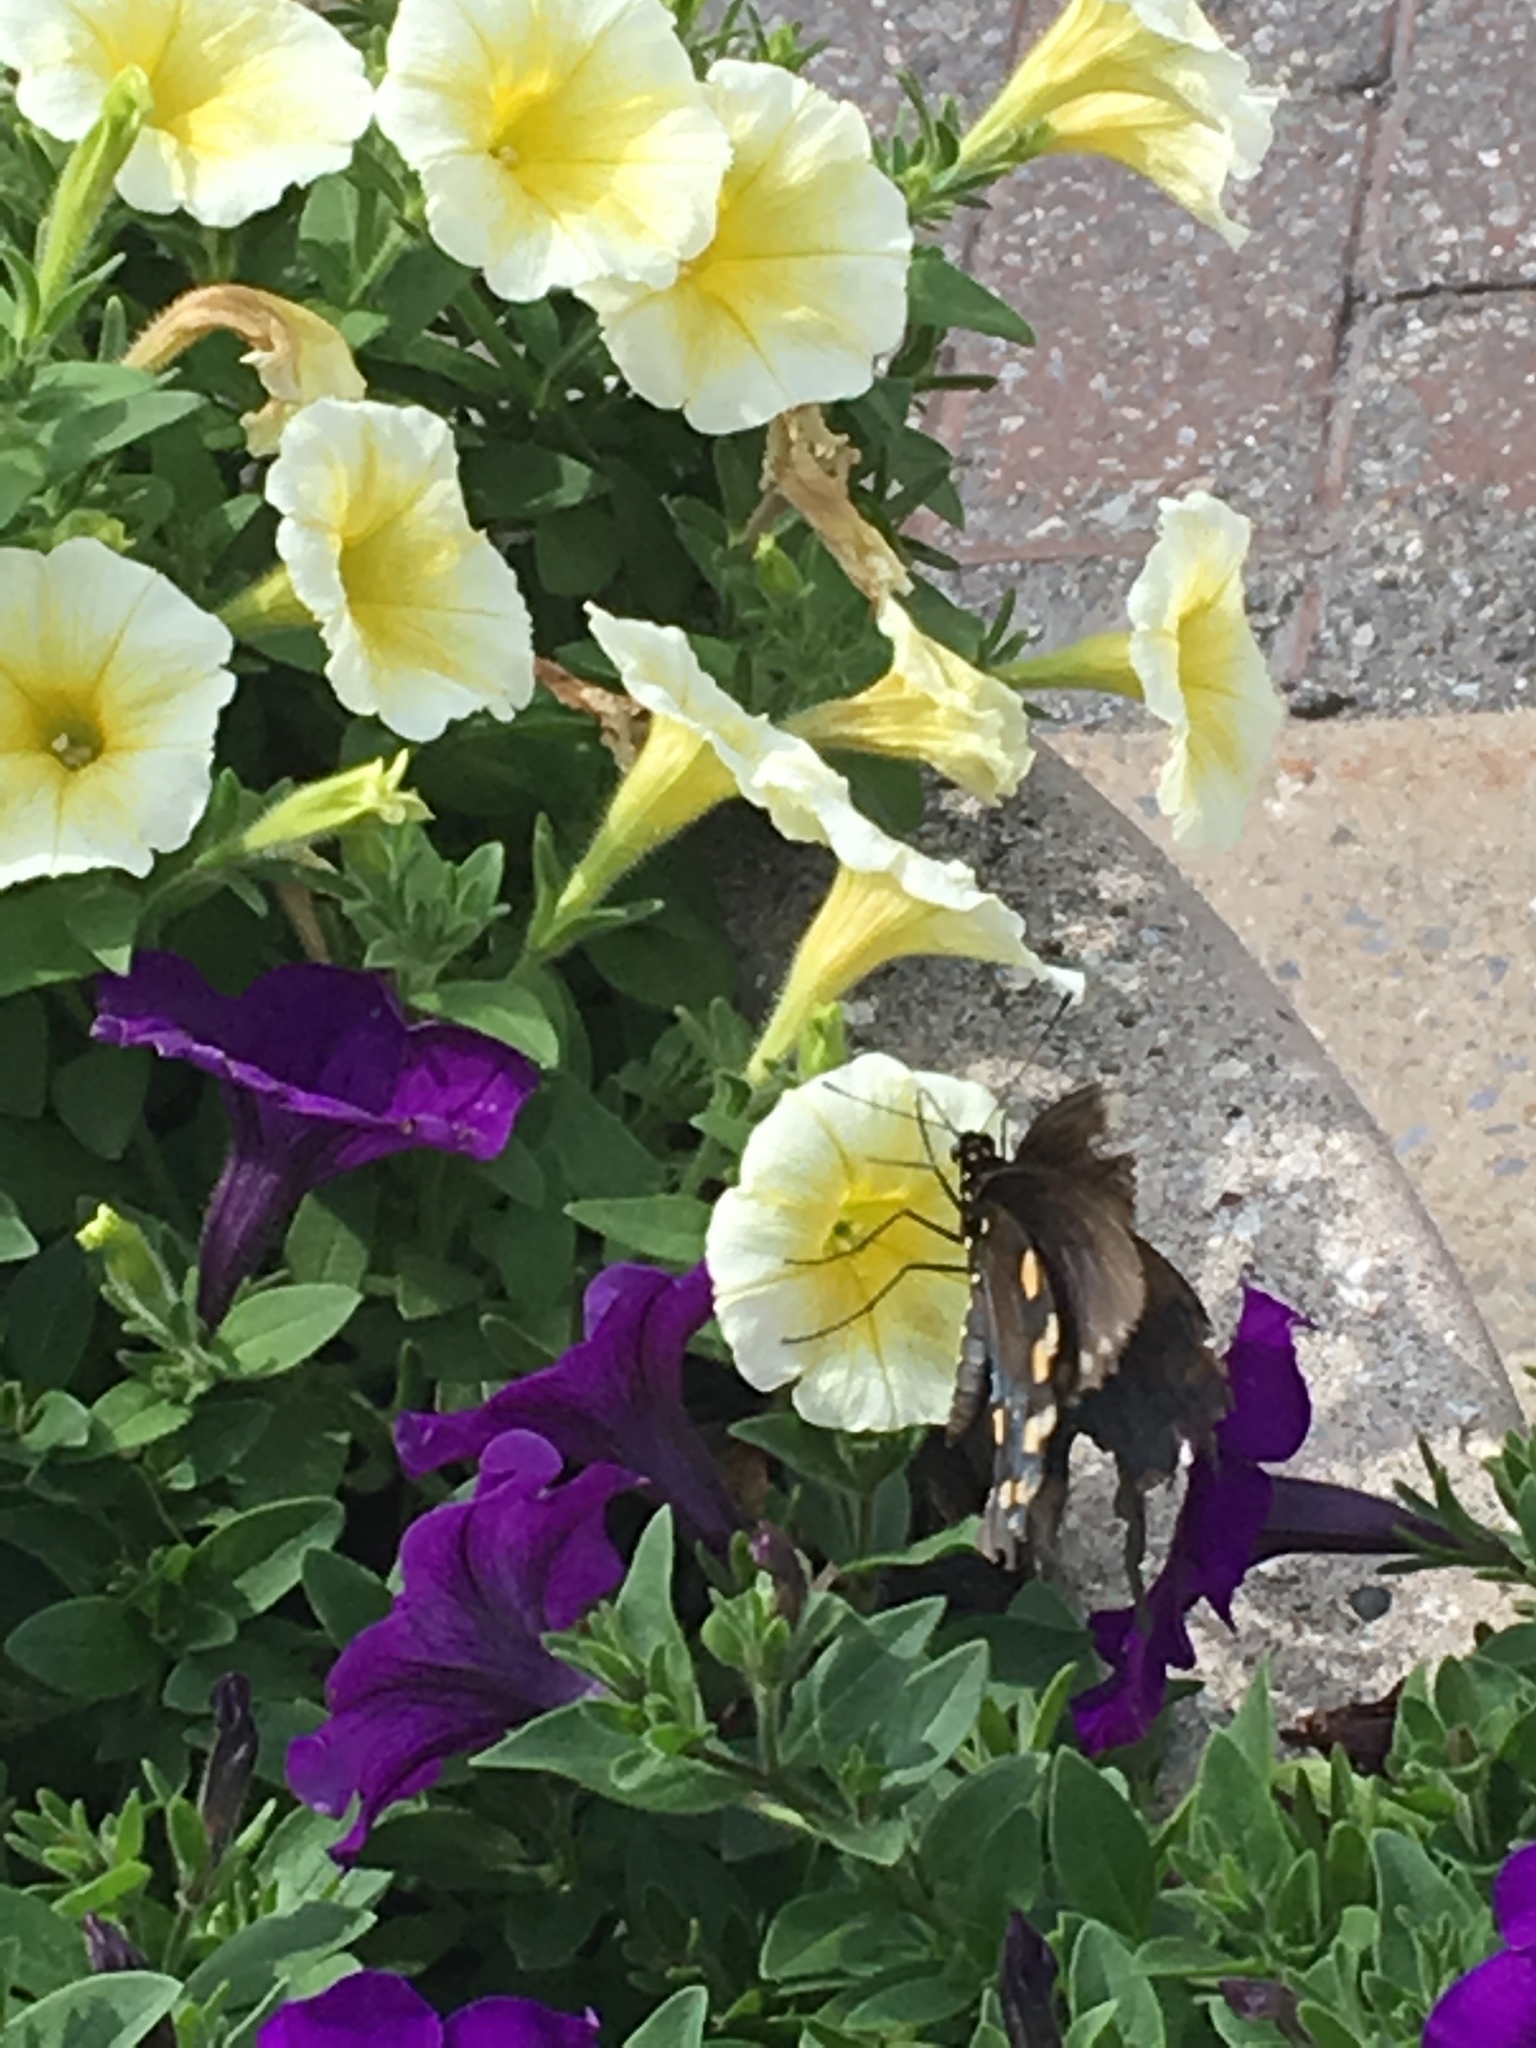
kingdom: Animalia
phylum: Arthropoda
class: Insecta
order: Lepidoptera
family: Papilionidae
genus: Battus
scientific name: Battus philenor
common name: Pipevine swallowtail
